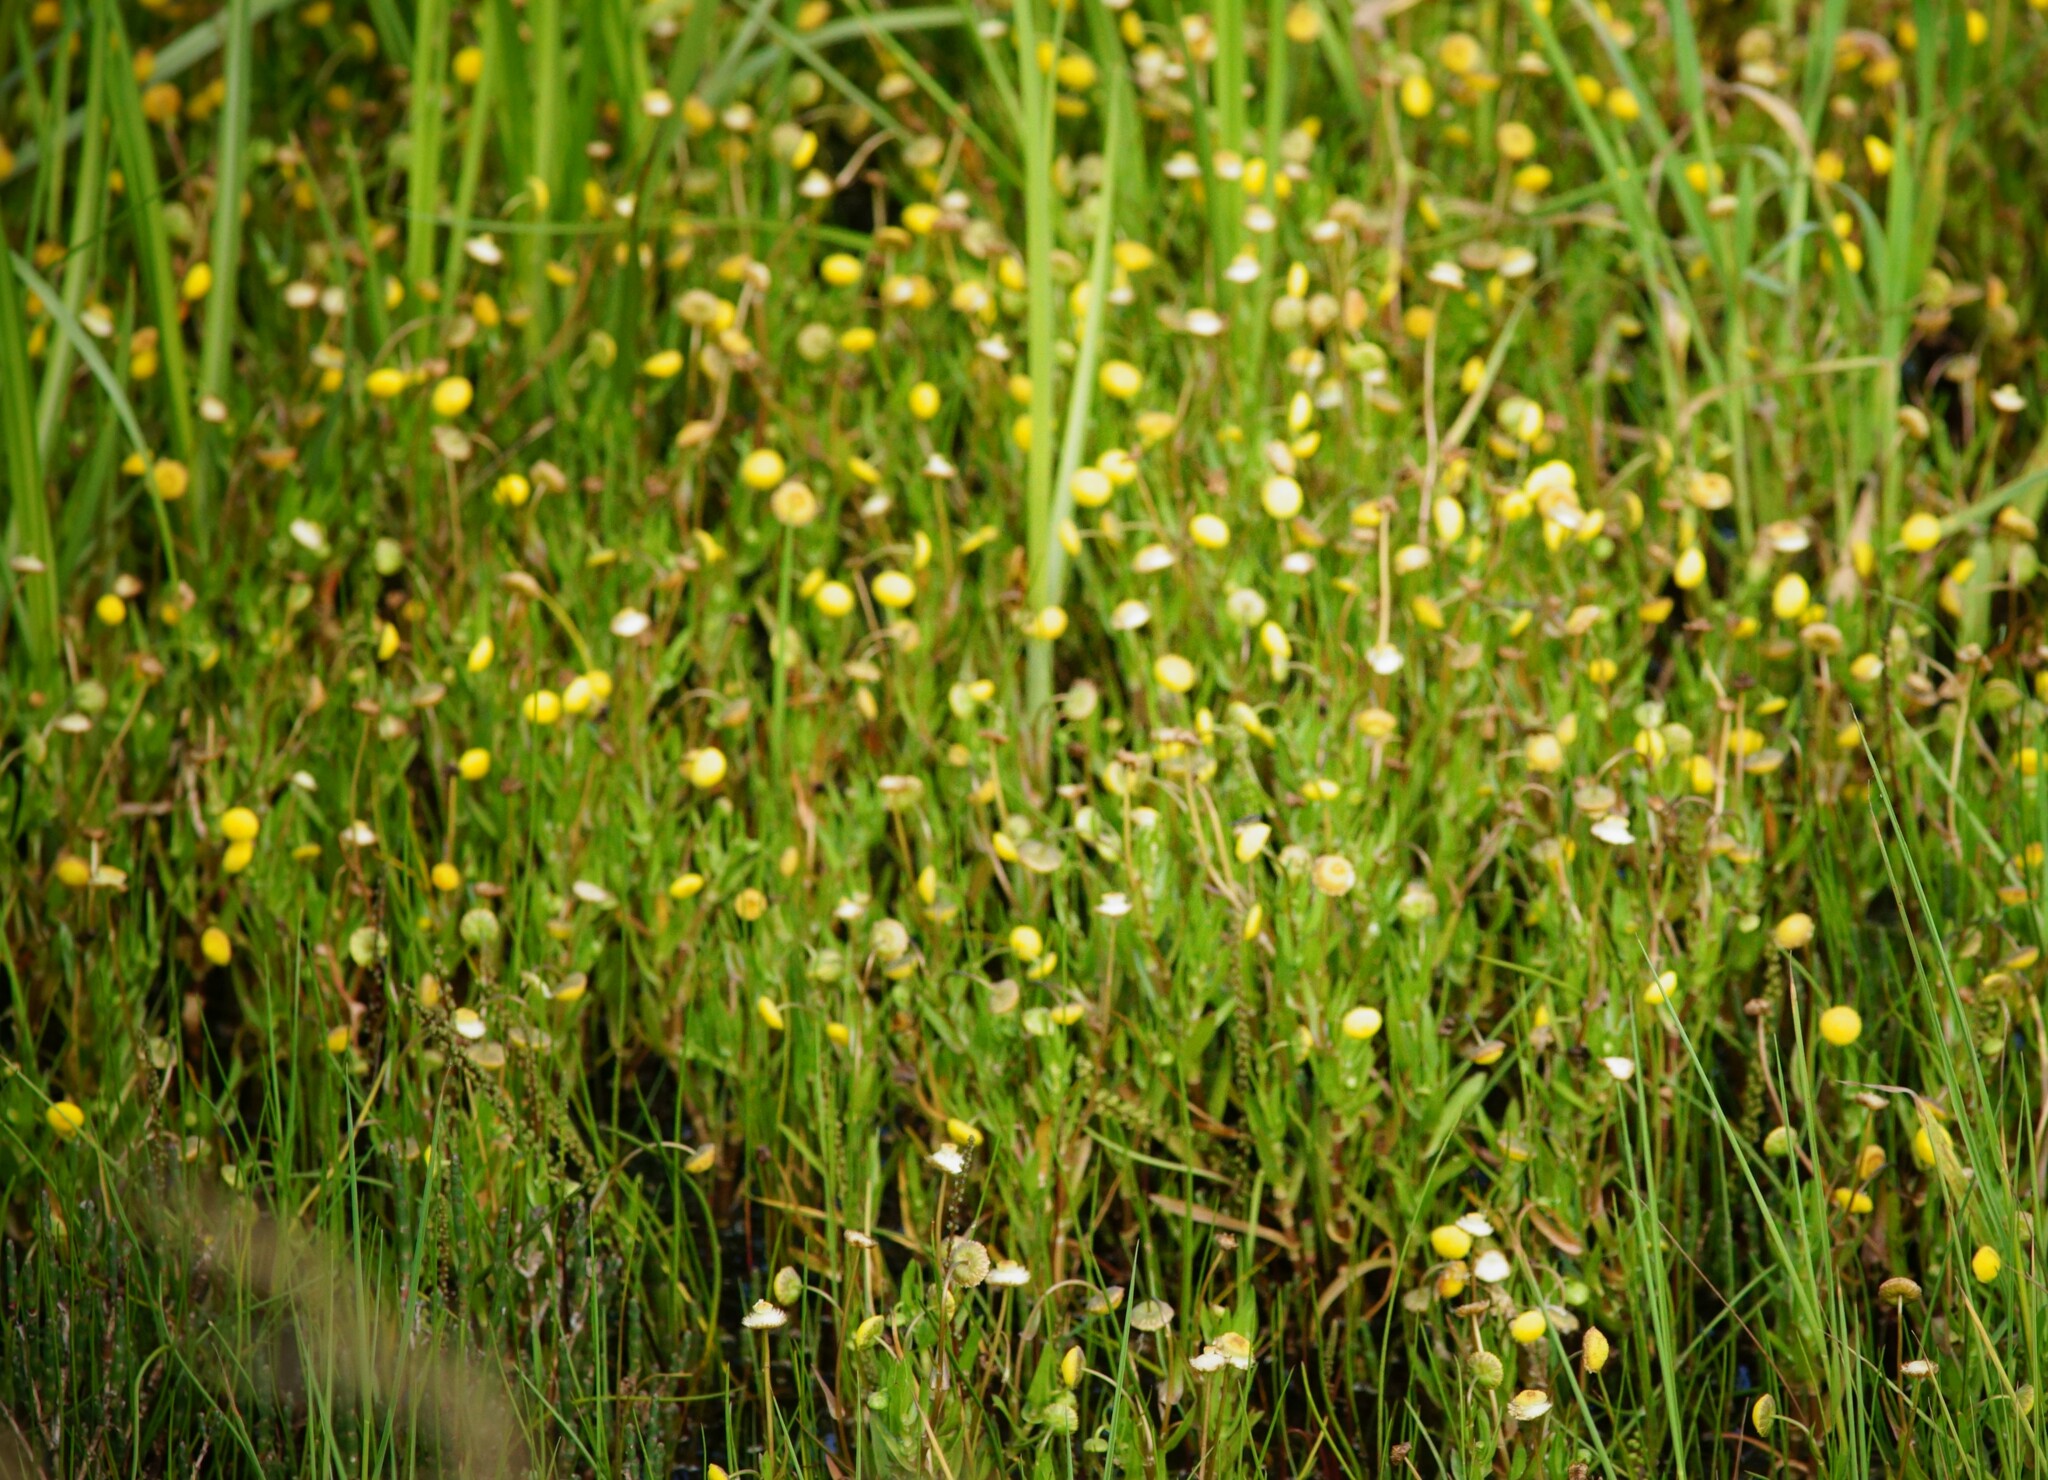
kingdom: Plantae
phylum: Tracheophyta
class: Magnoliopsida
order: Asterales
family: Asteraceae
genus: Cotula
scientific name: Cotula coronopifolia
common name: Buttonweed
